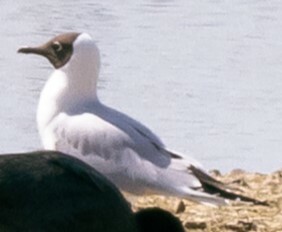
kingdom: Animalia
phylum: Chordata
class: Aves
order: Charadriiformes
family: Laridae
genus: Chroicocephalus
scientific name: Chroicocephalus ridibundus
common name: Black-headed gull
